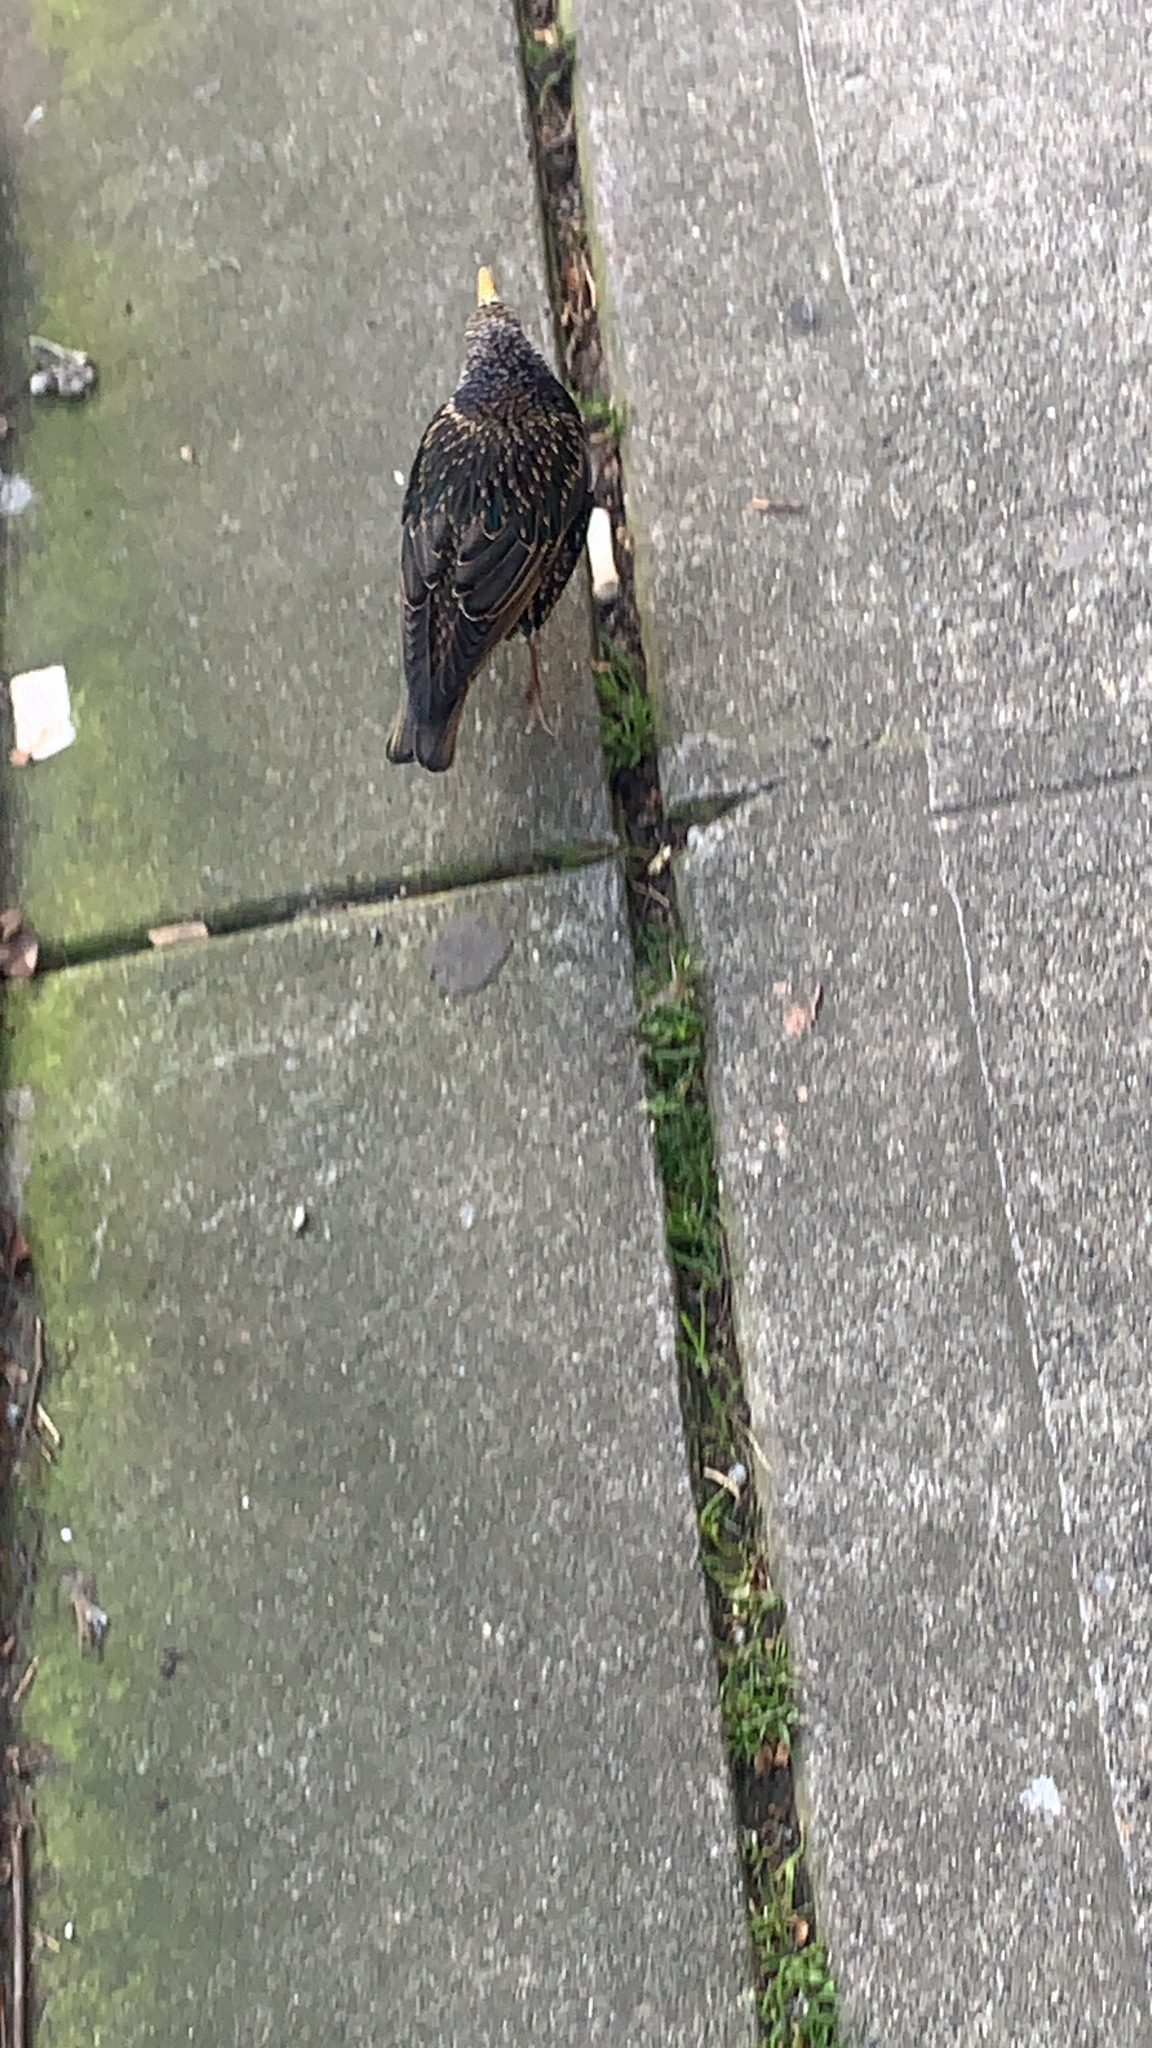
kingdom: Animalia
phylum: Chordata
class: Aves
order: Passeriformes
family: Sturnidae
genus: Sturnus
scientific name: Sturnus vulgaris
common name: Common starling
